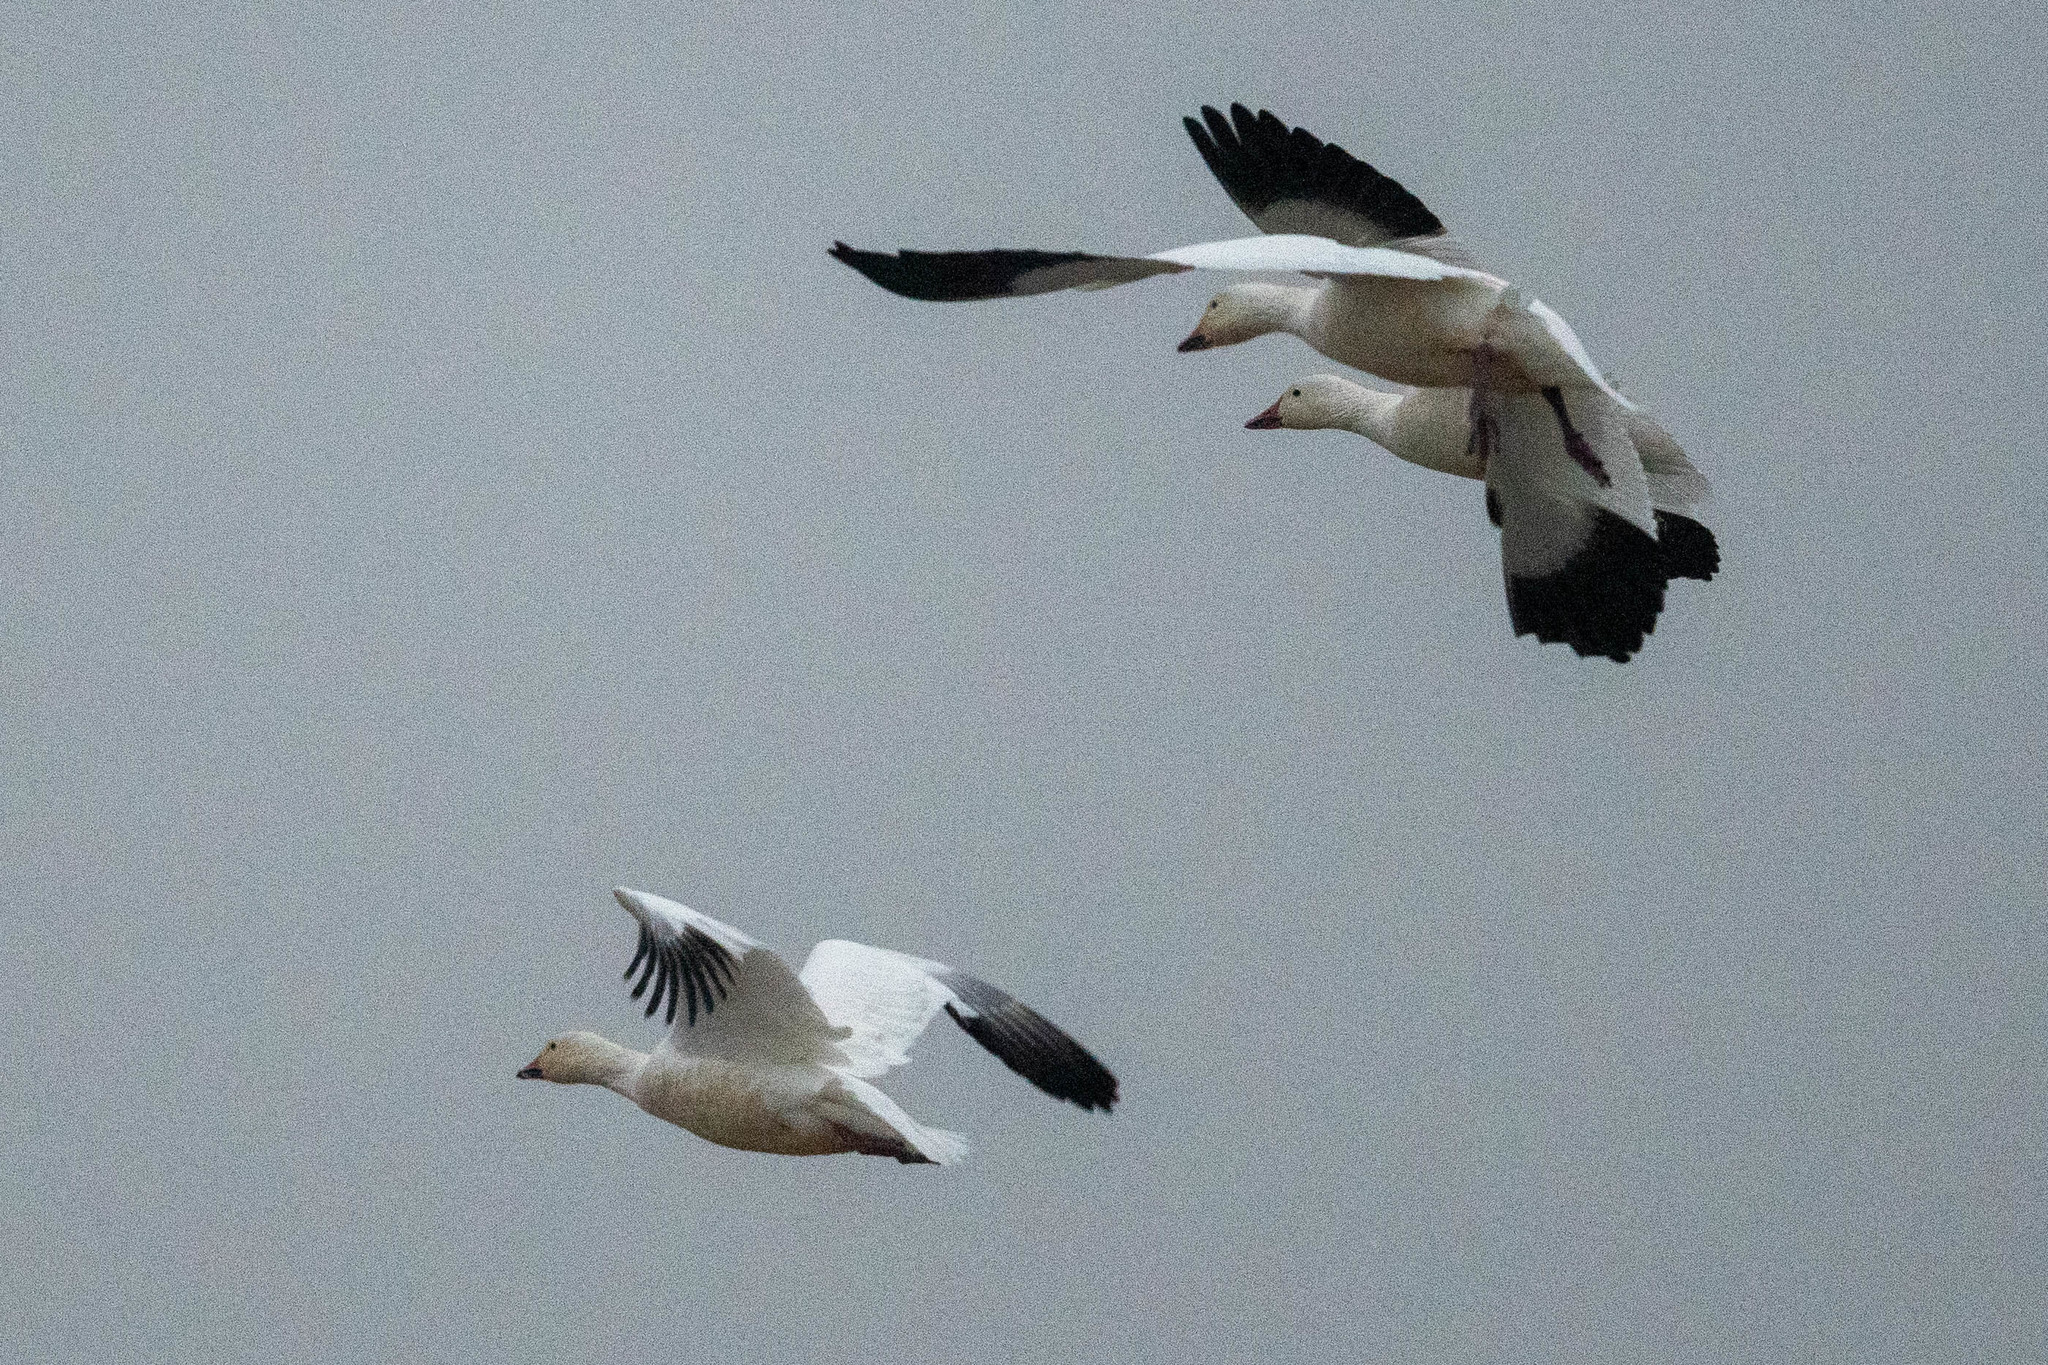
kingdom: Animalia
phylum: Chordata
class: Aves
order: Anseriformes
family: Anatidae
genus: Anser
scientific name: Anser caerulescens
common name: Snow goose
